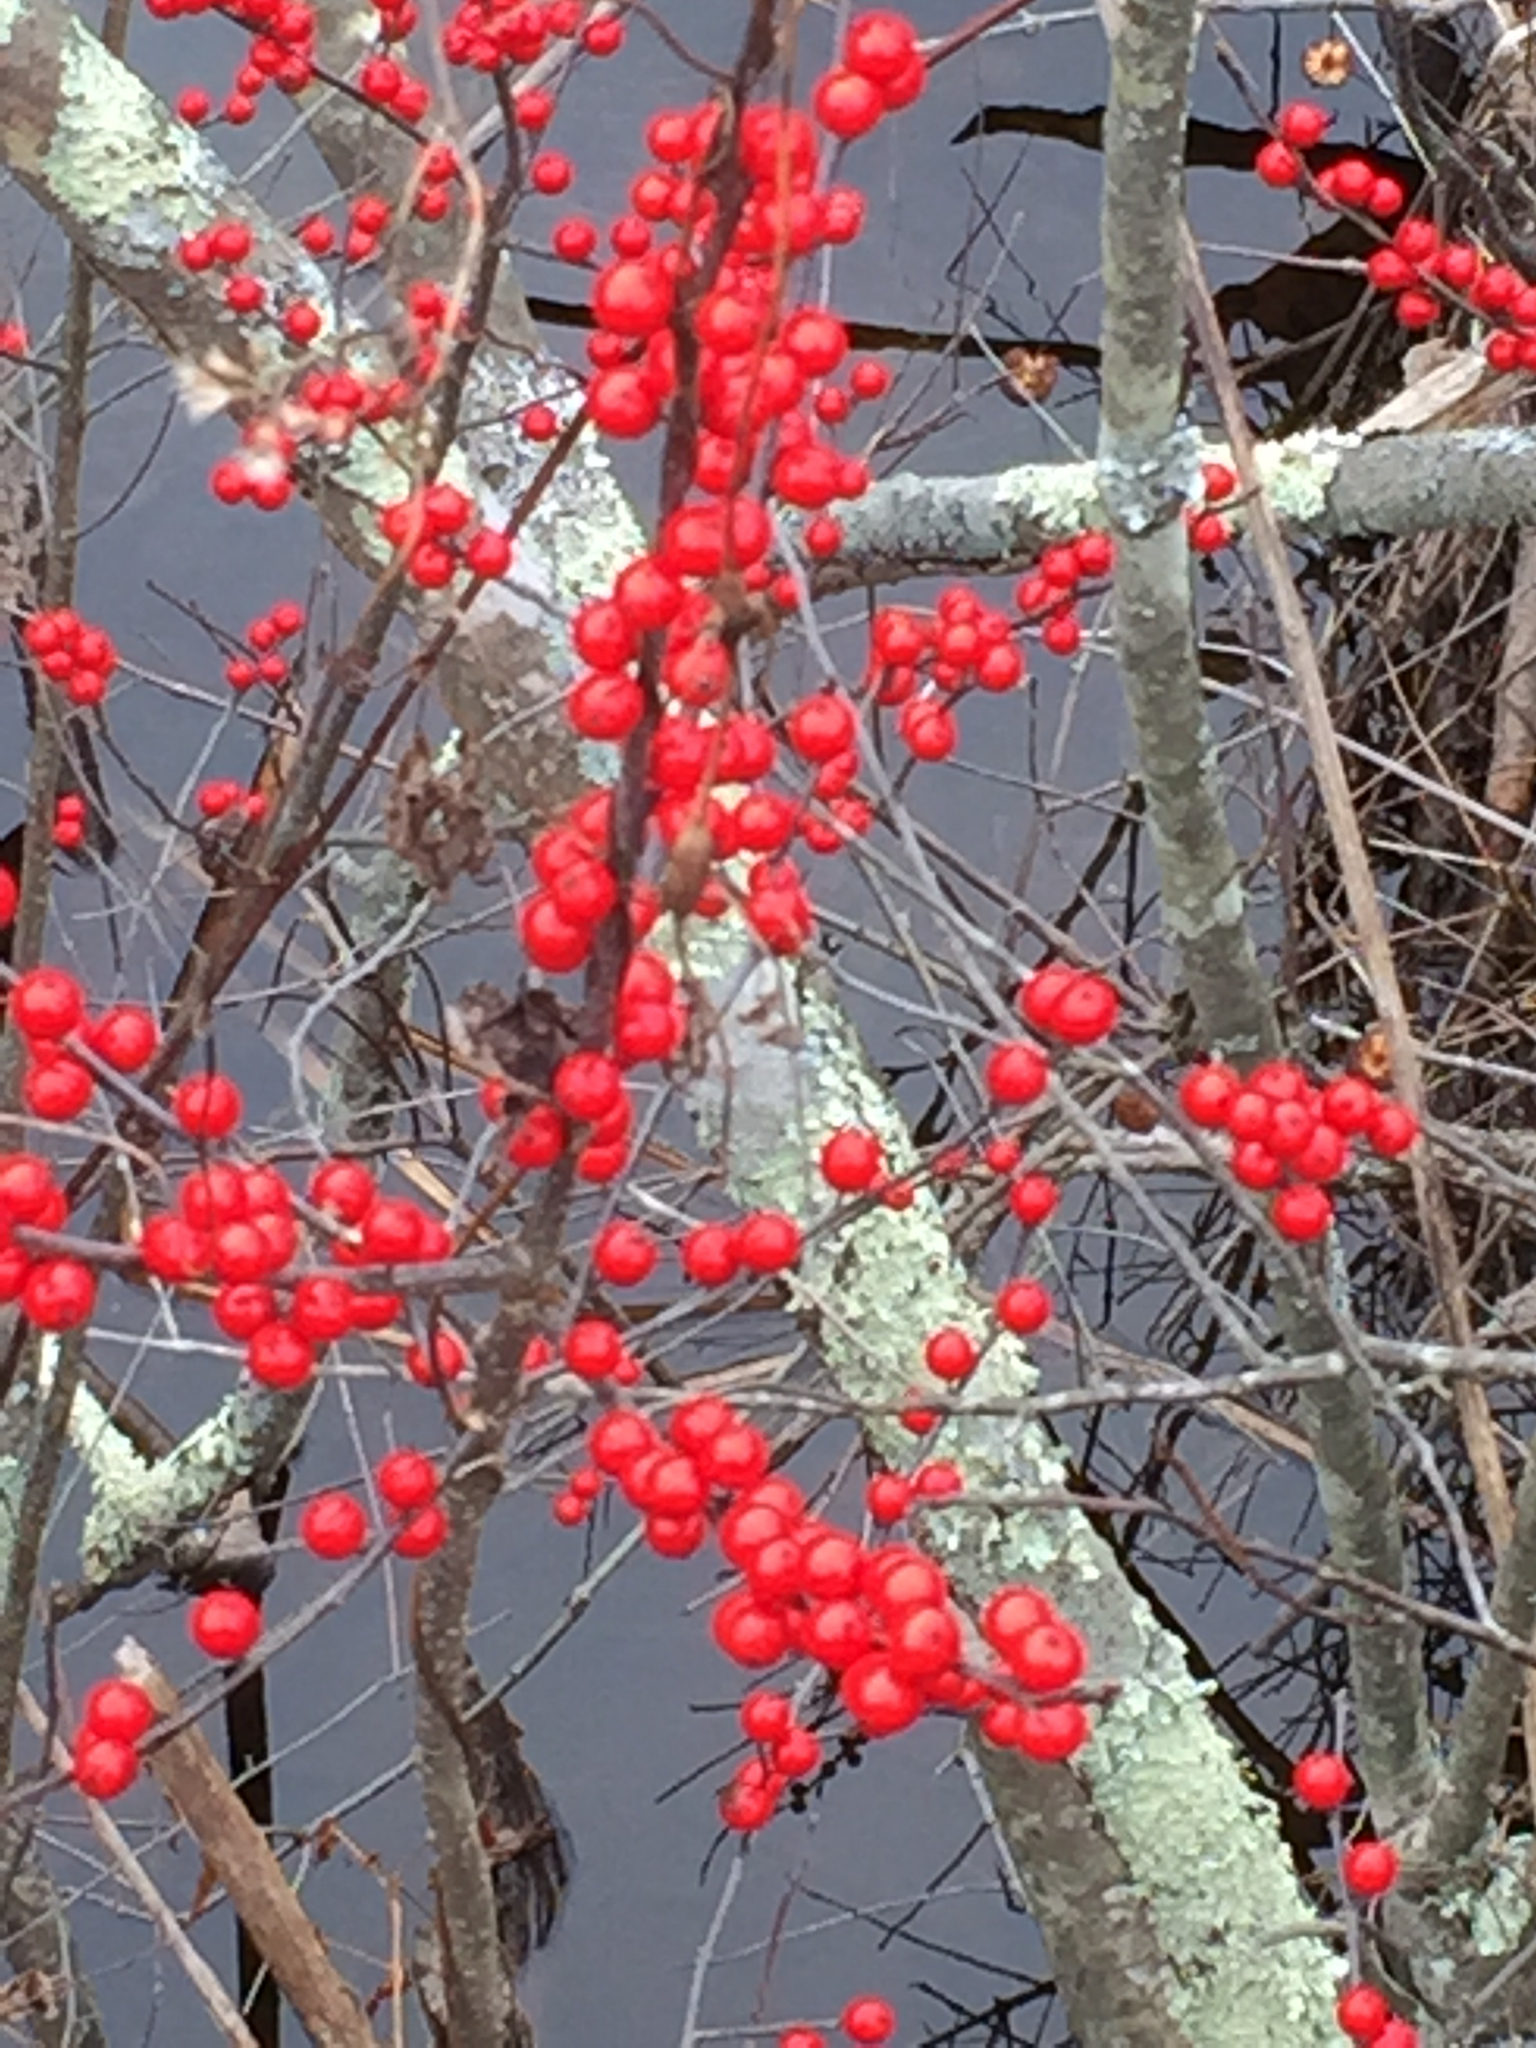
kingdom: Plantae
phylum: Tracheophyta
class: Magnoliopsida
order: Aquifoliales
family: Aquifoliaceae
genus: Ilex
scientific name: Ilex verticillata
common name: Virginia winterberry
